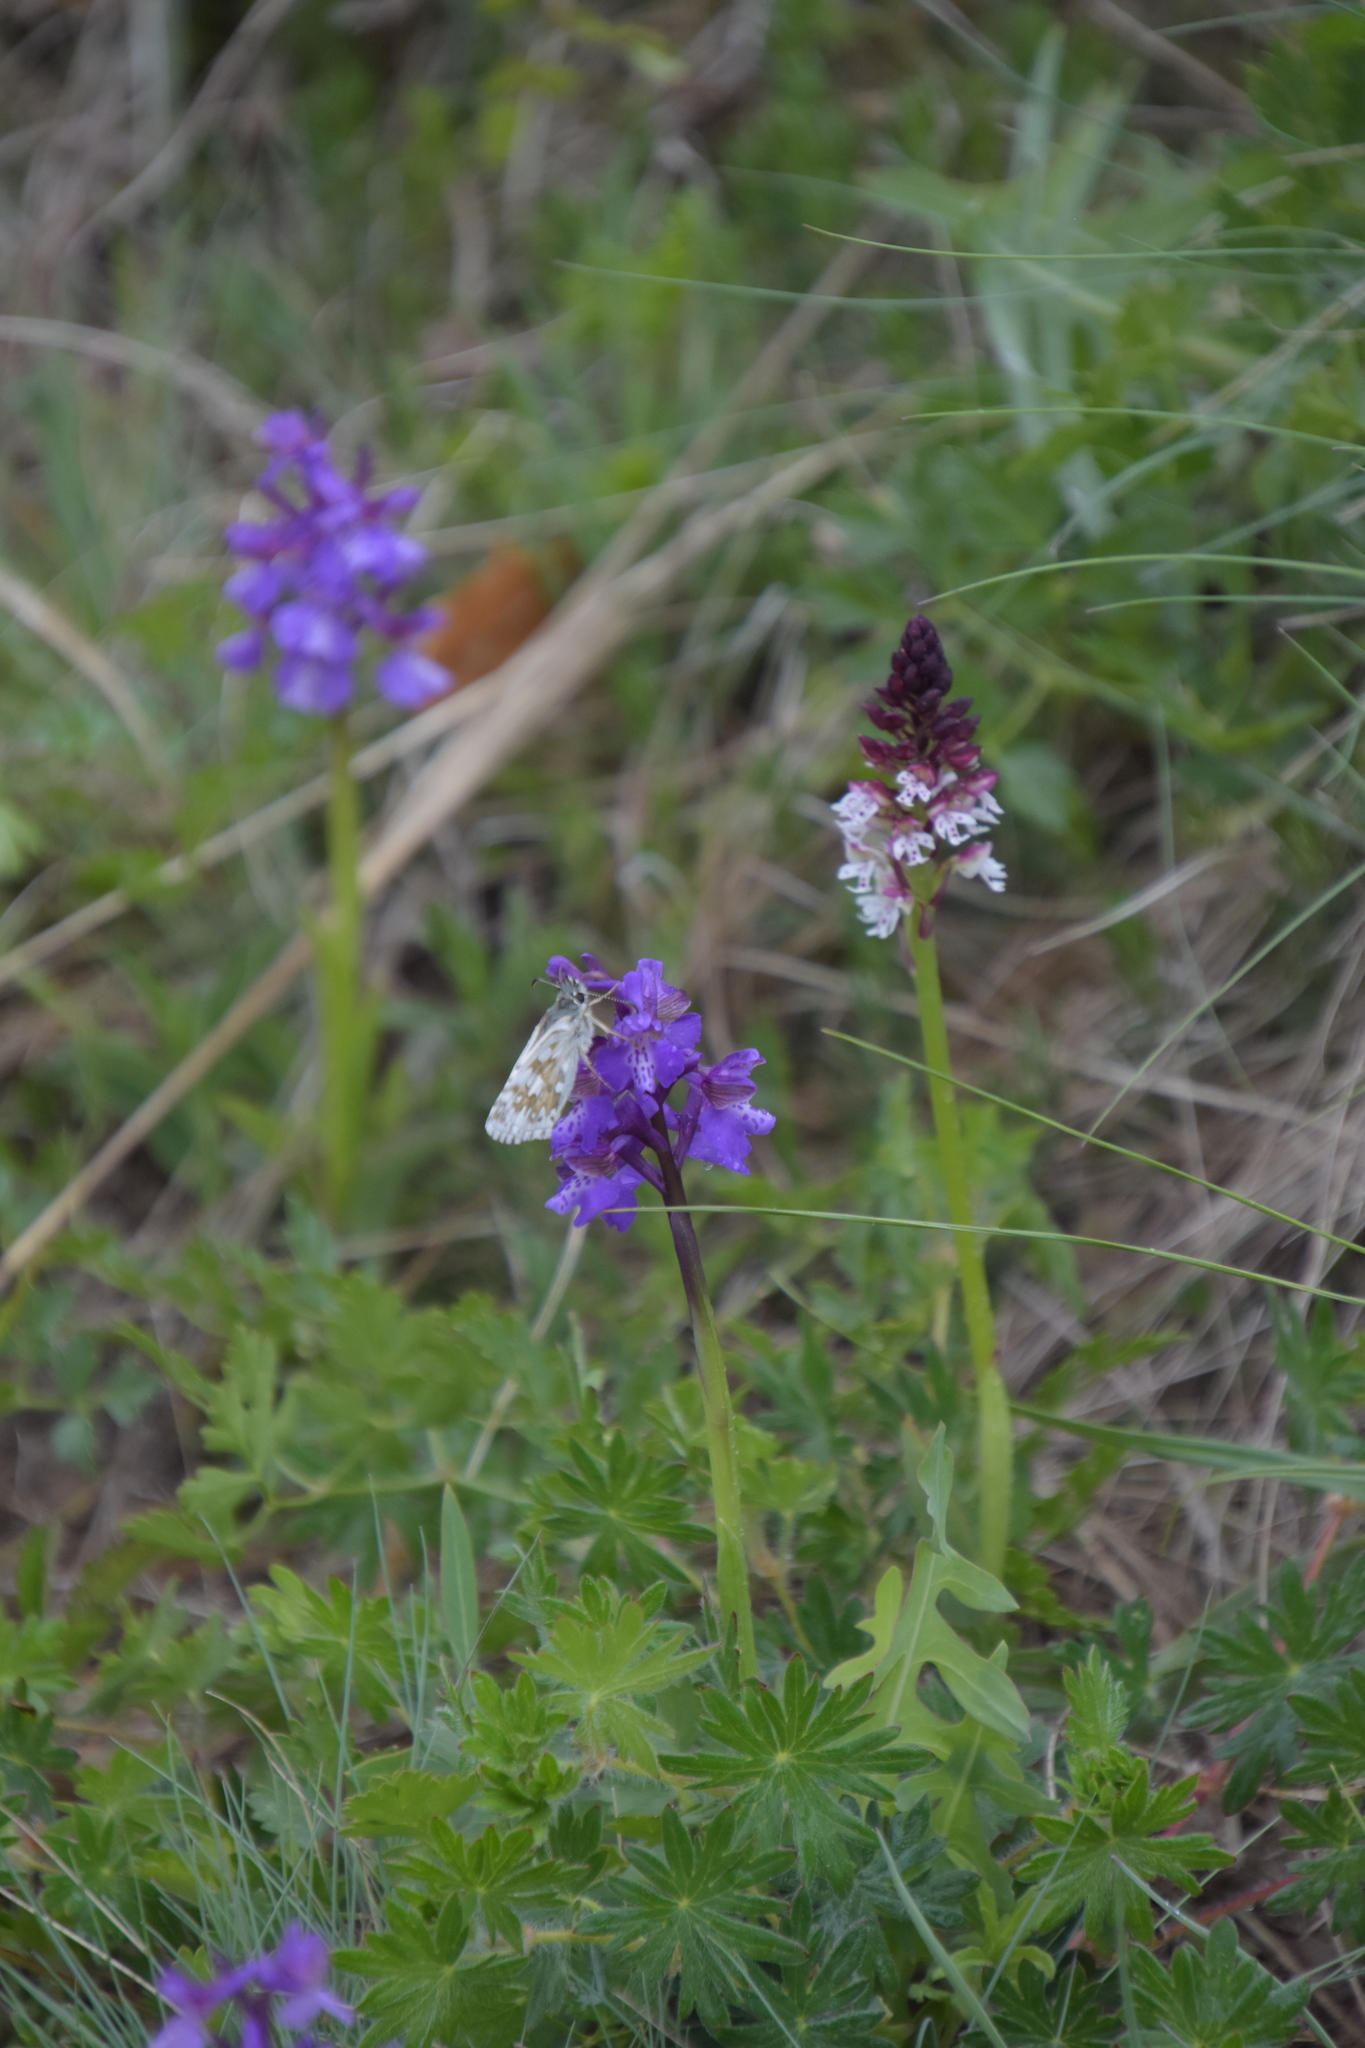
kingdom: Animalia
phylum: Arthropoda
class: Insecta
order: Lepidoptera
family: Hesperiidae
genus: Pyrgus
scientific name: Pyrgus fritillarius
